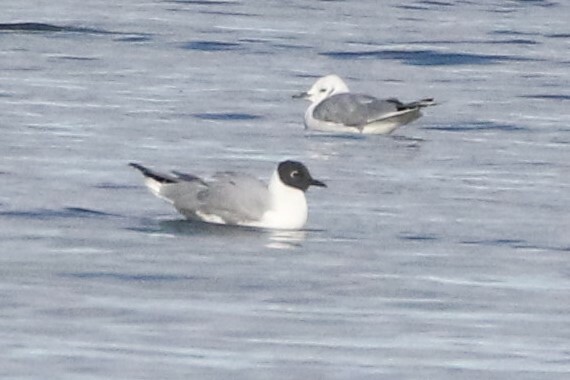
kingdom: Animalia
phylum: Chordata
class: Aves
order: Charadriiformes
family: Laridae
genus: Chroicocephalus
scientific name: Chroicocephalus philadelphia
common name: Bonaparte's gull
